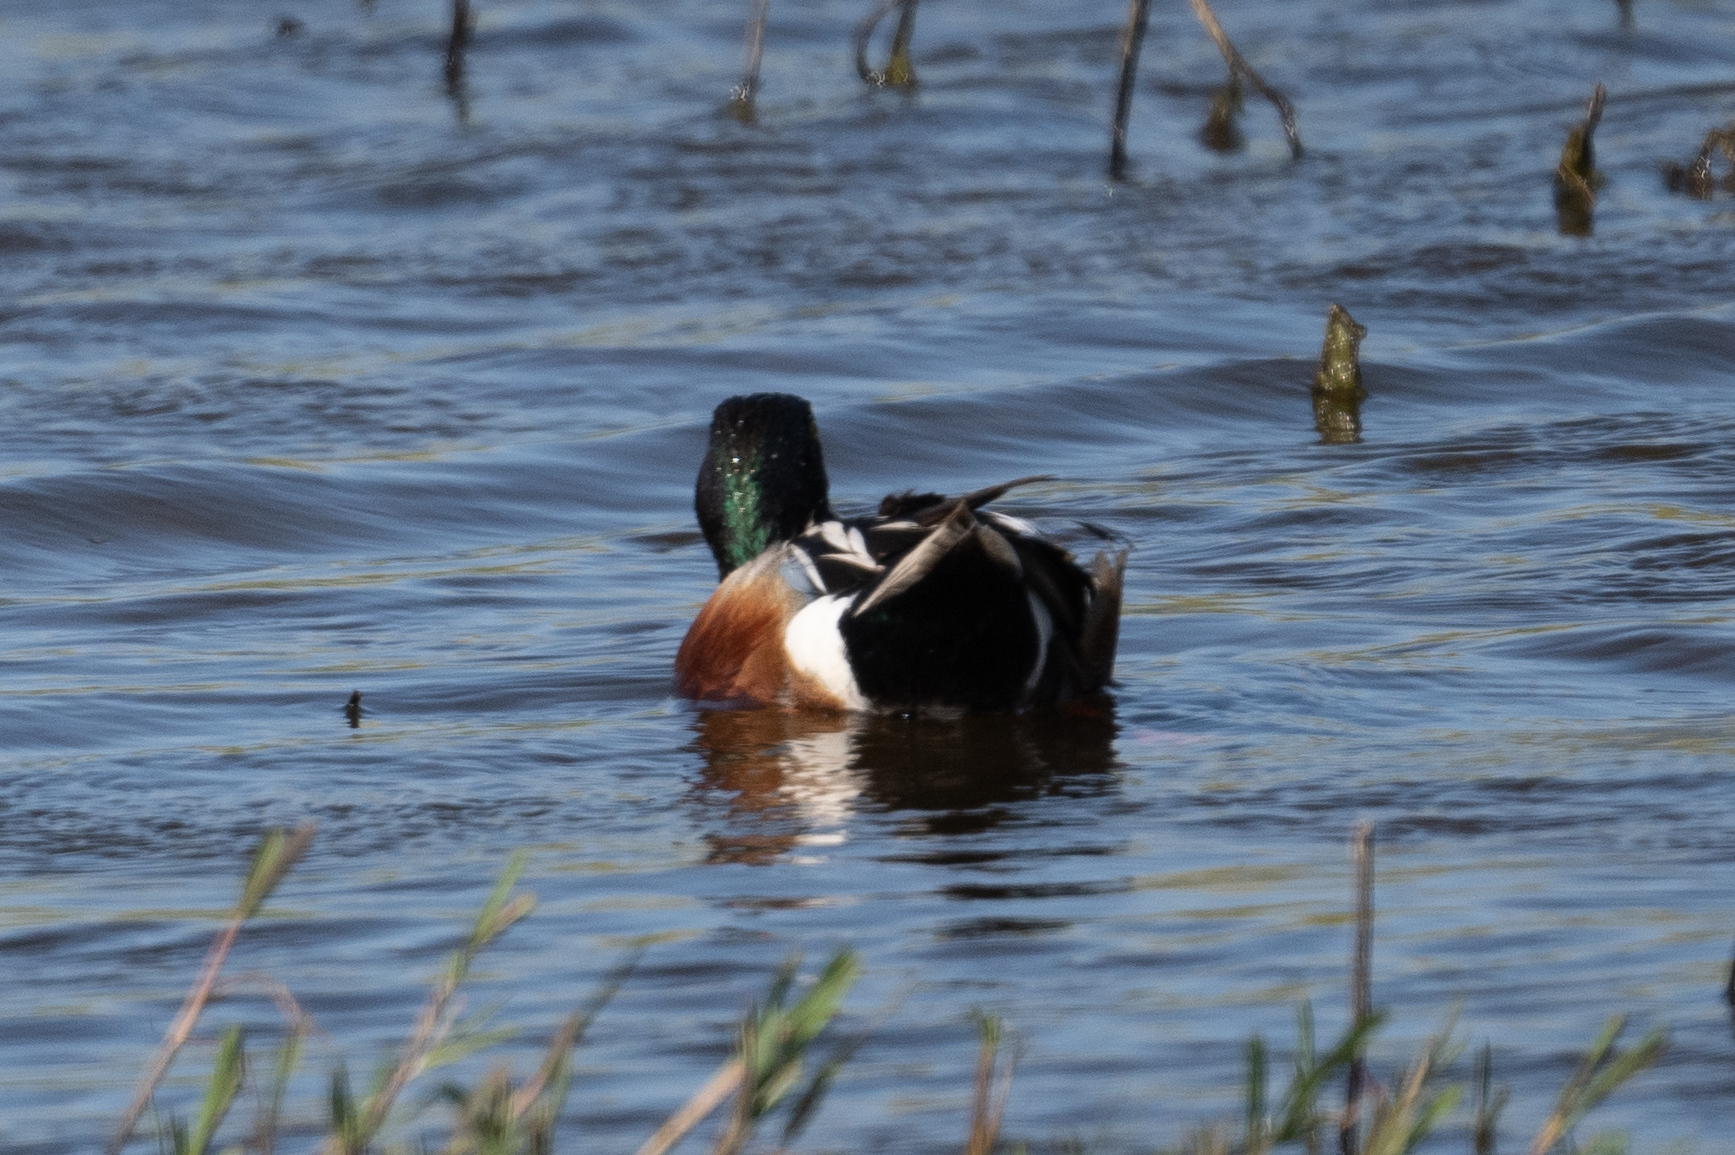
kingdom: Animalia
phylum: Chordata
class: Aves
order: Anseriformes
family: Anatidae
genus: Spatula
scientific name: Spatula clypeata
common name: Northern shoveler
